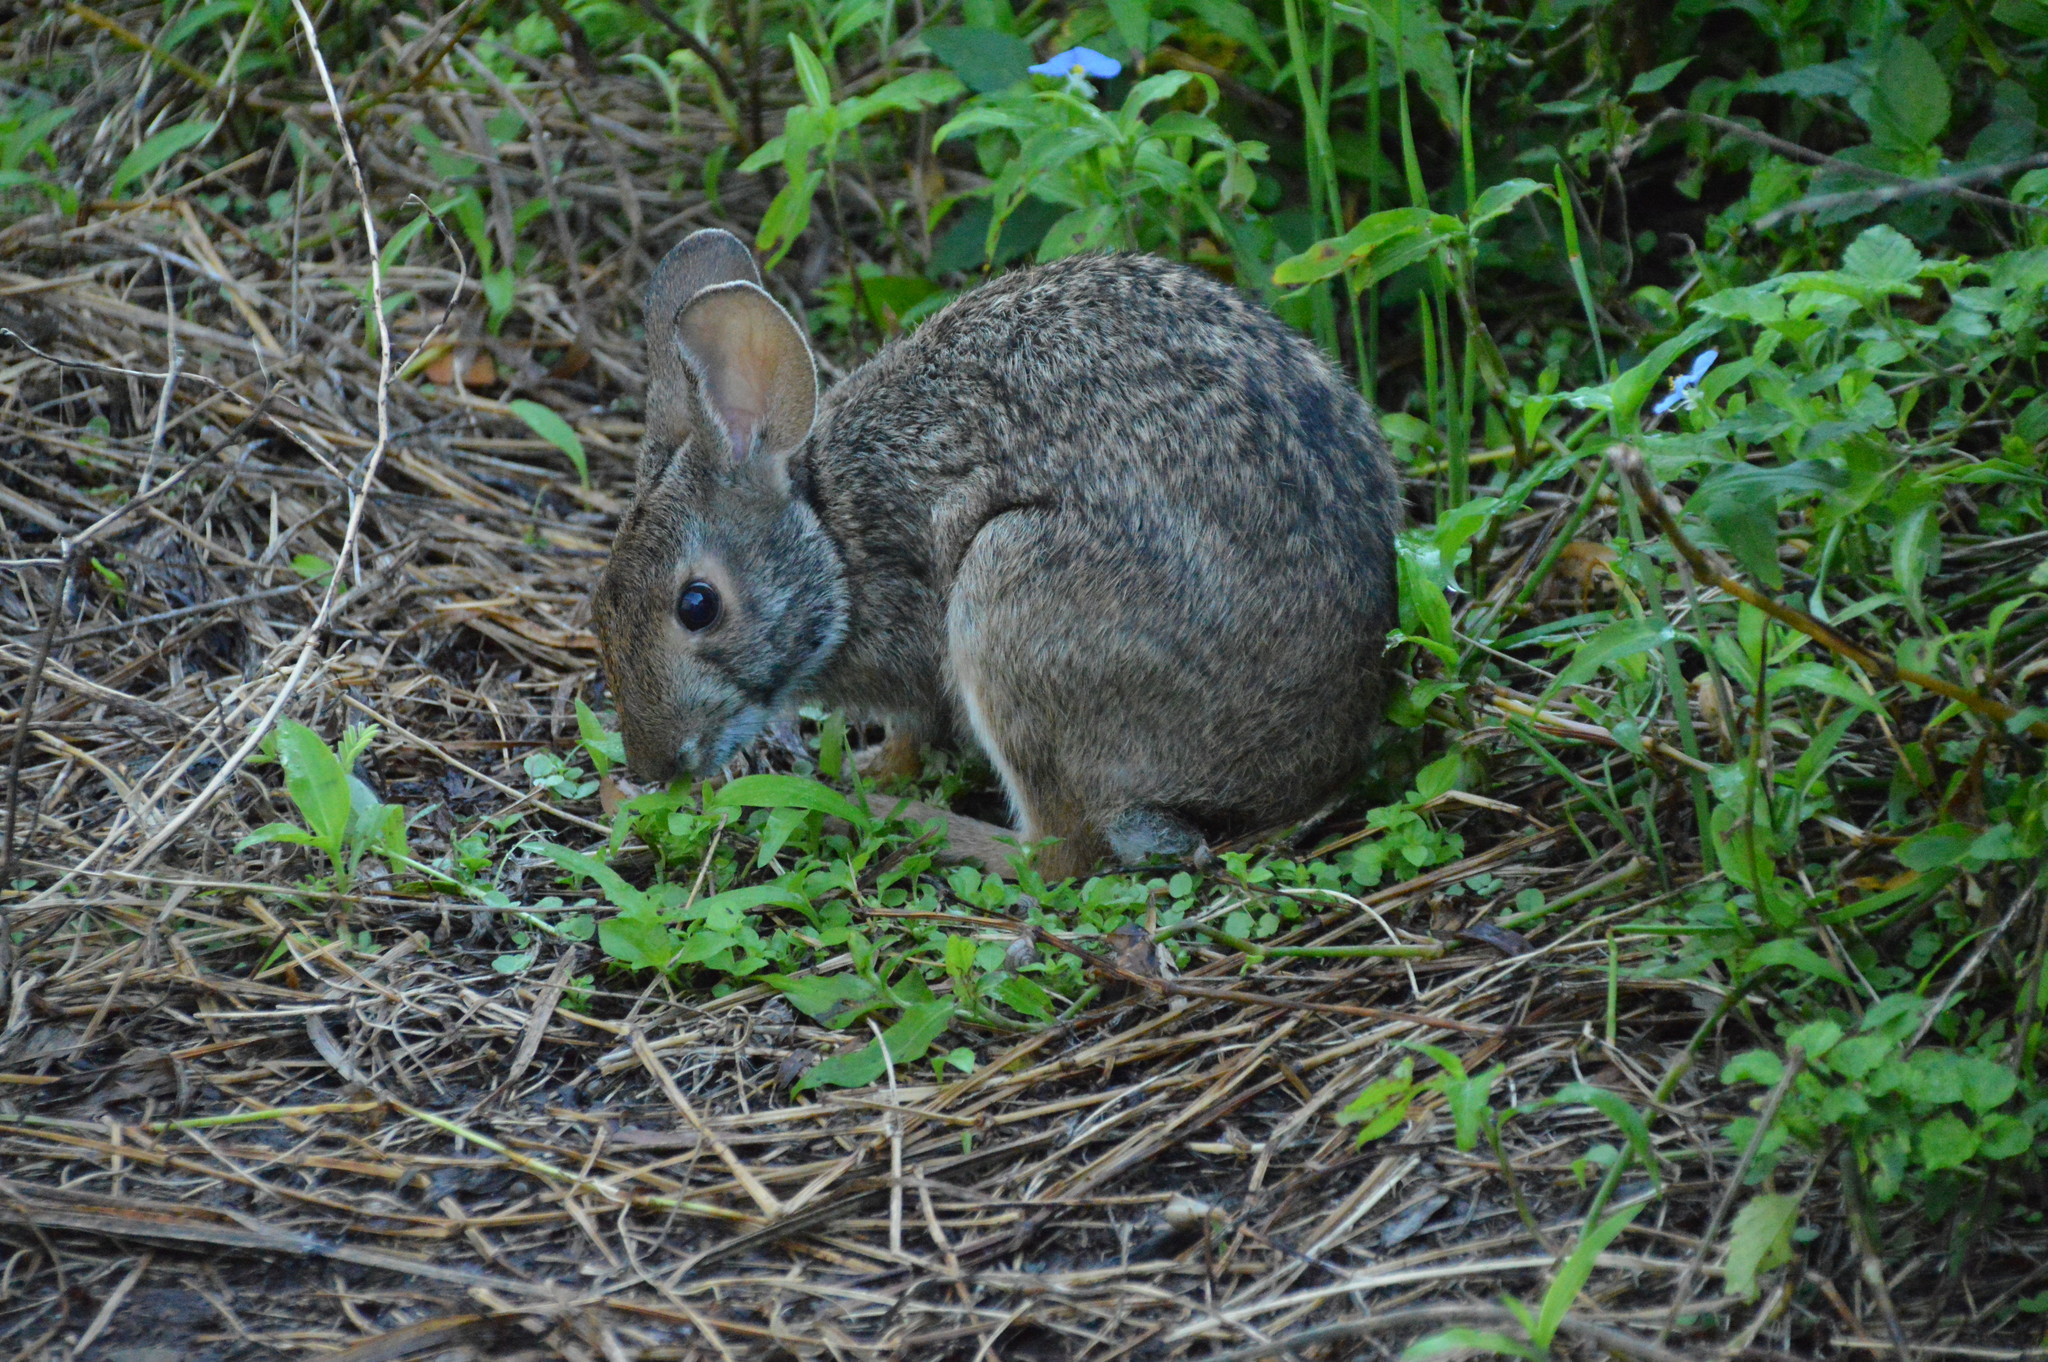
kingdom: Animalia
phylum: Chordata
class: Mammalia
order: Lagomorpha
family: Leporidae
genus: Sylvilagus
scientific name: Sylvilagus aquaticus
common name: Swamp rabbit
